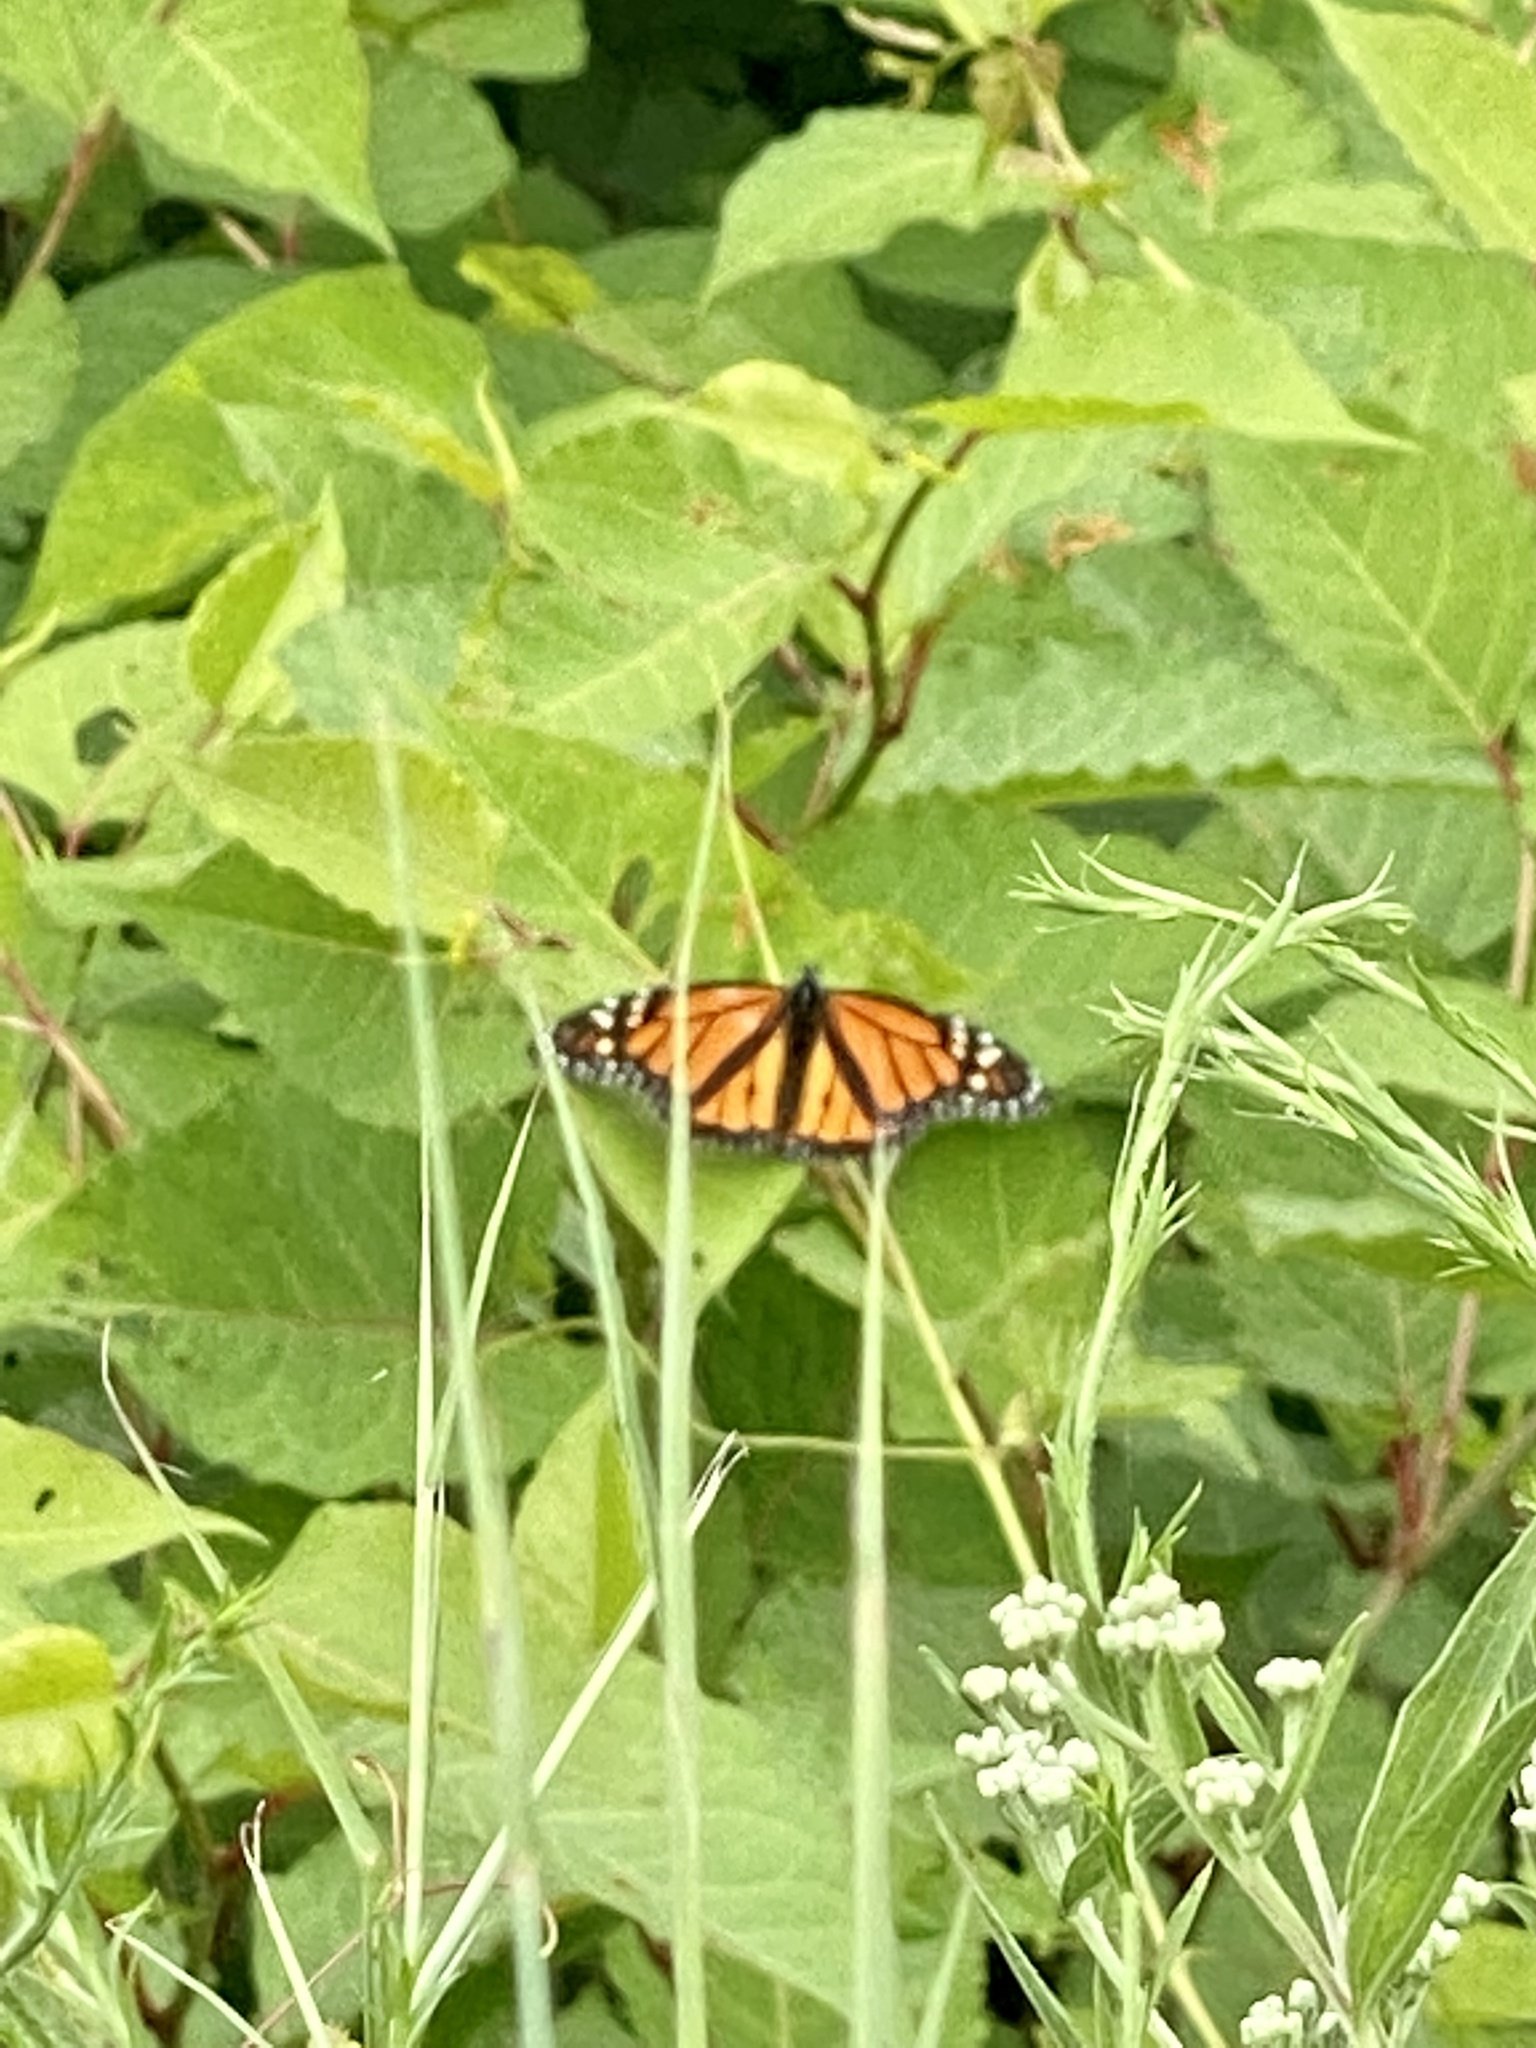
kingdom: Animalia
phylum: Arthropoda
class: Insecta
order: Lepidoptera
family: Nymphalidae
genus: Danaus
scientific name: Danaus plexippus
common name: Monarch
